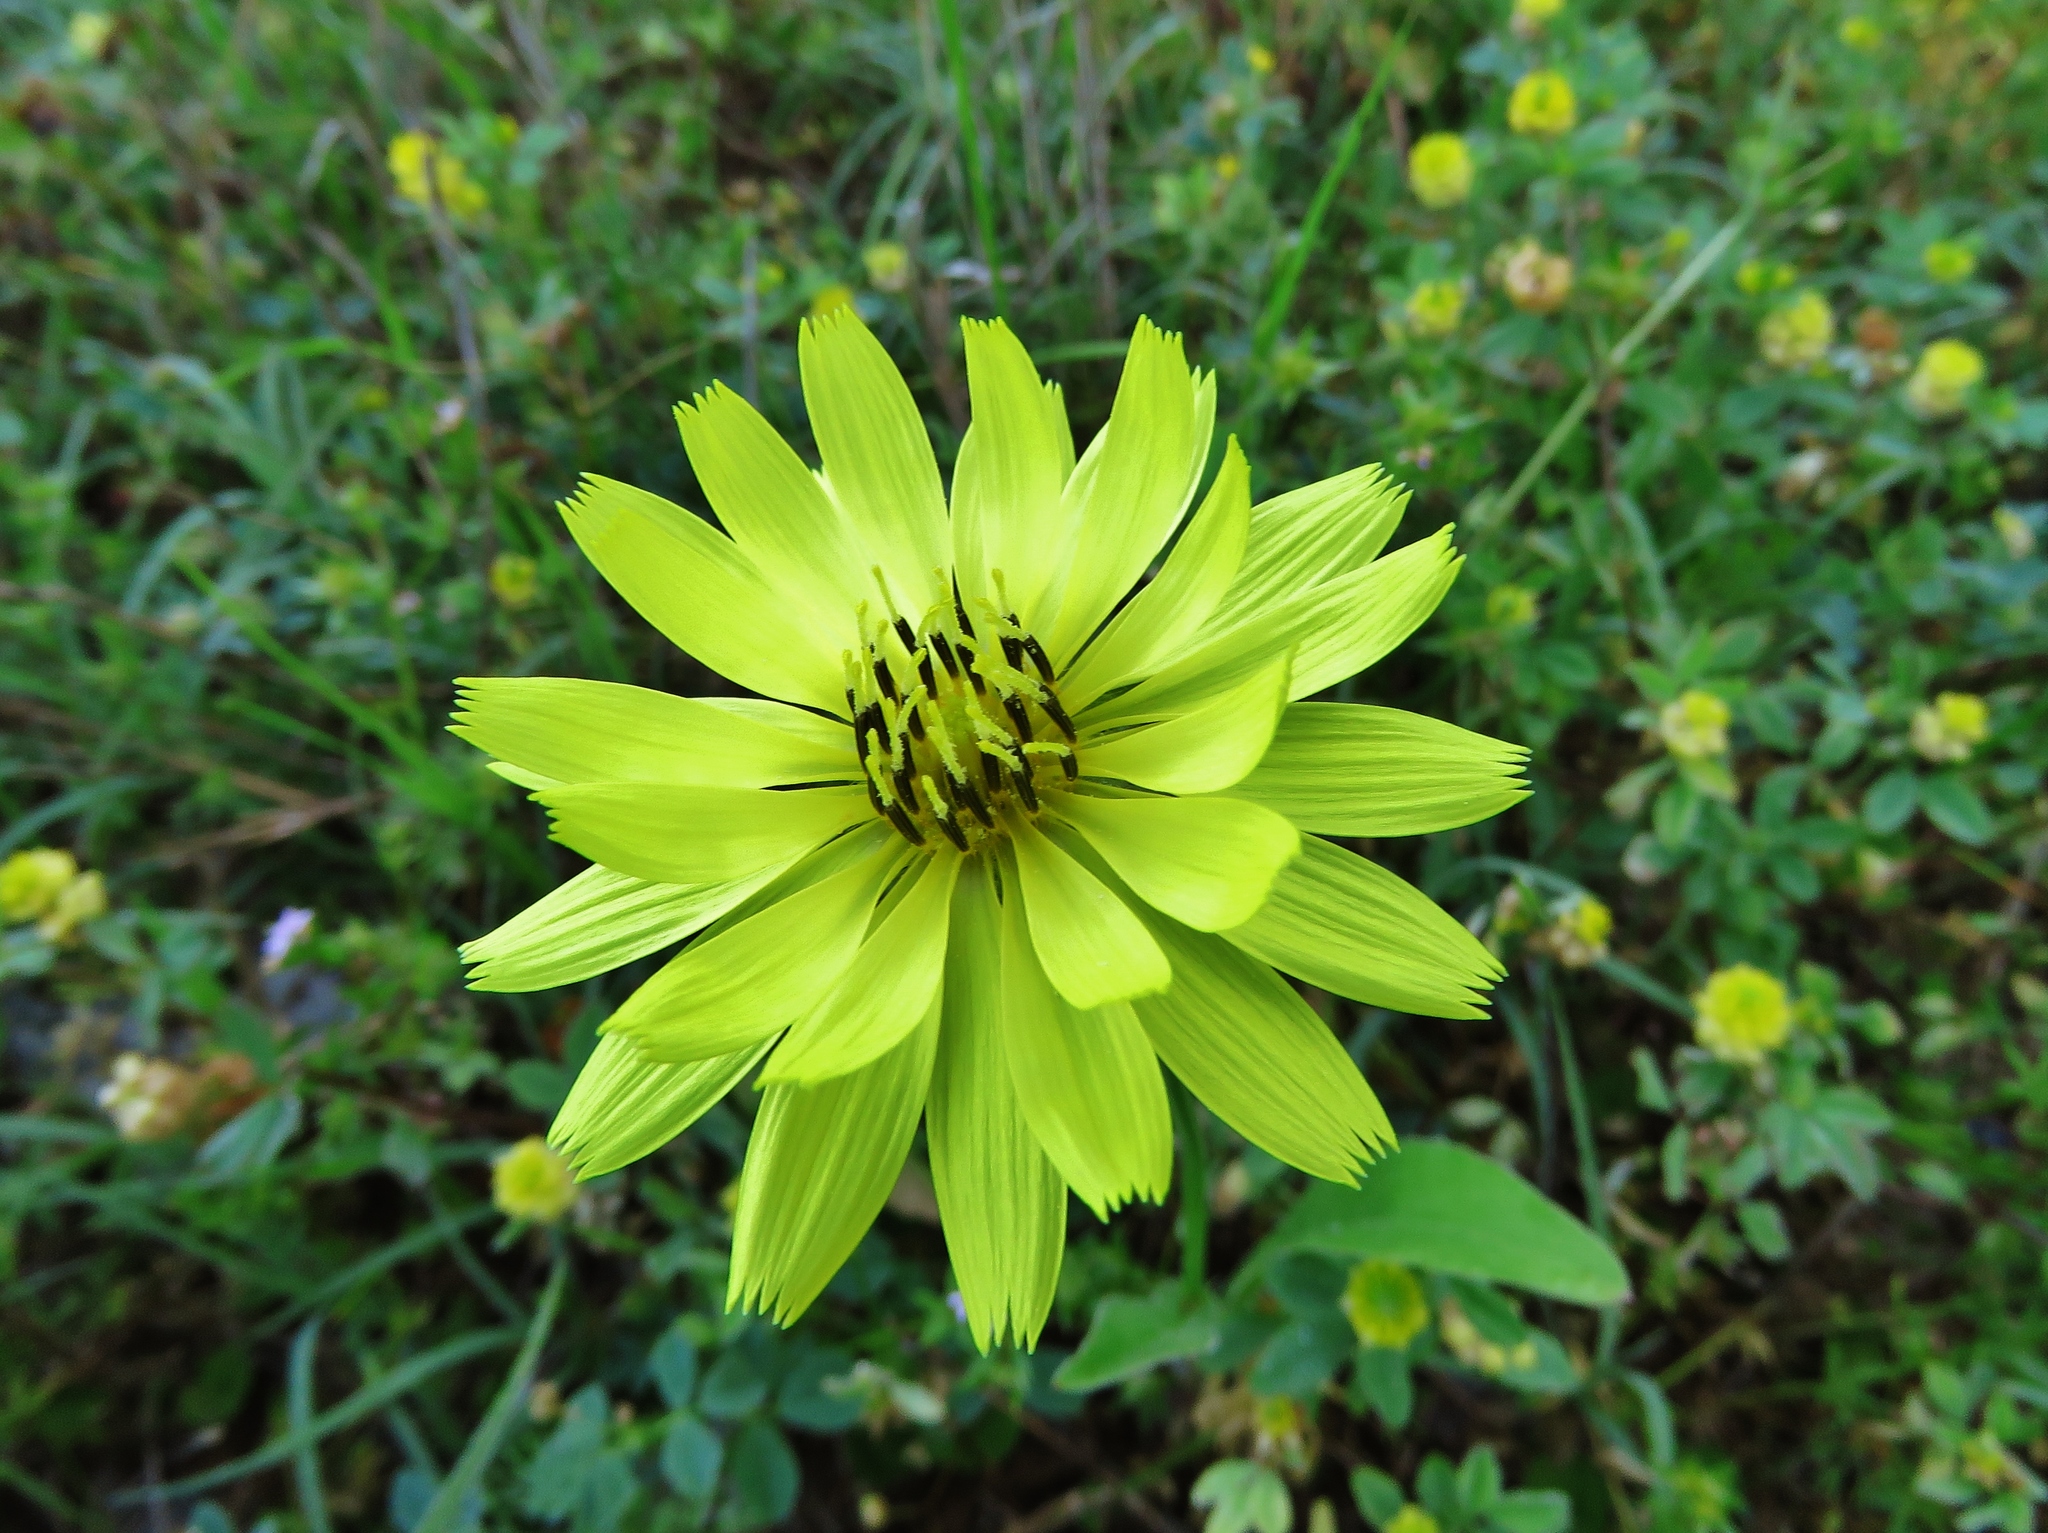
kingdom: Plantae
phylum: Tracheophyta
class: Magnoliopsida
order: Asterales
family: Asteraceae
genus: Pyrrhopappus
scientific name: Pyrrhopappus pauciflorus
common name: Texas false dandelion
